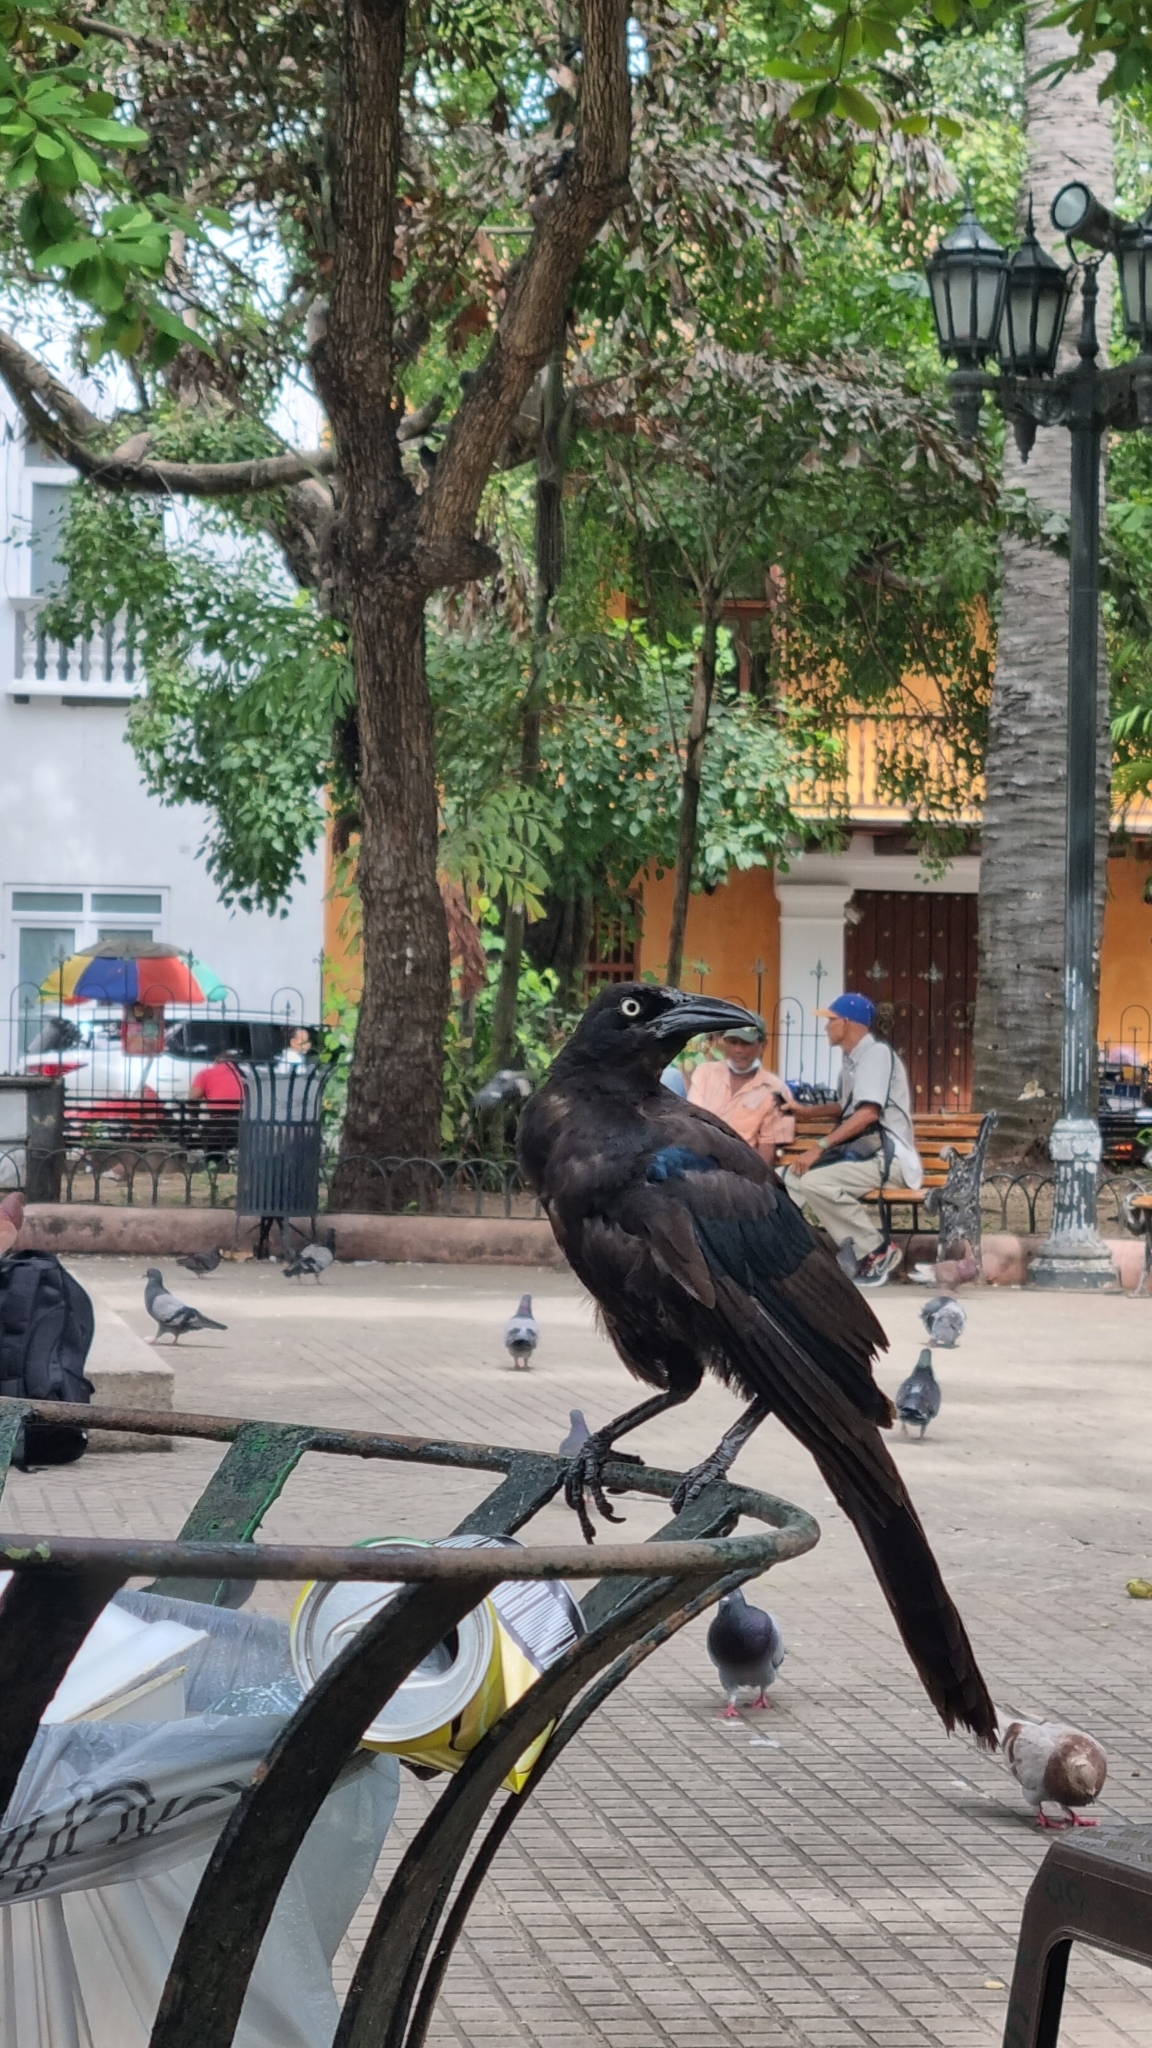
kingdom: Animalia
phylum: Chordata
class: Aves
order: Passeriformes
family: Icteridae
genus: Quiscalus
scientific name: Quiscalus mexicanus
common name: Great-tailed grackle
